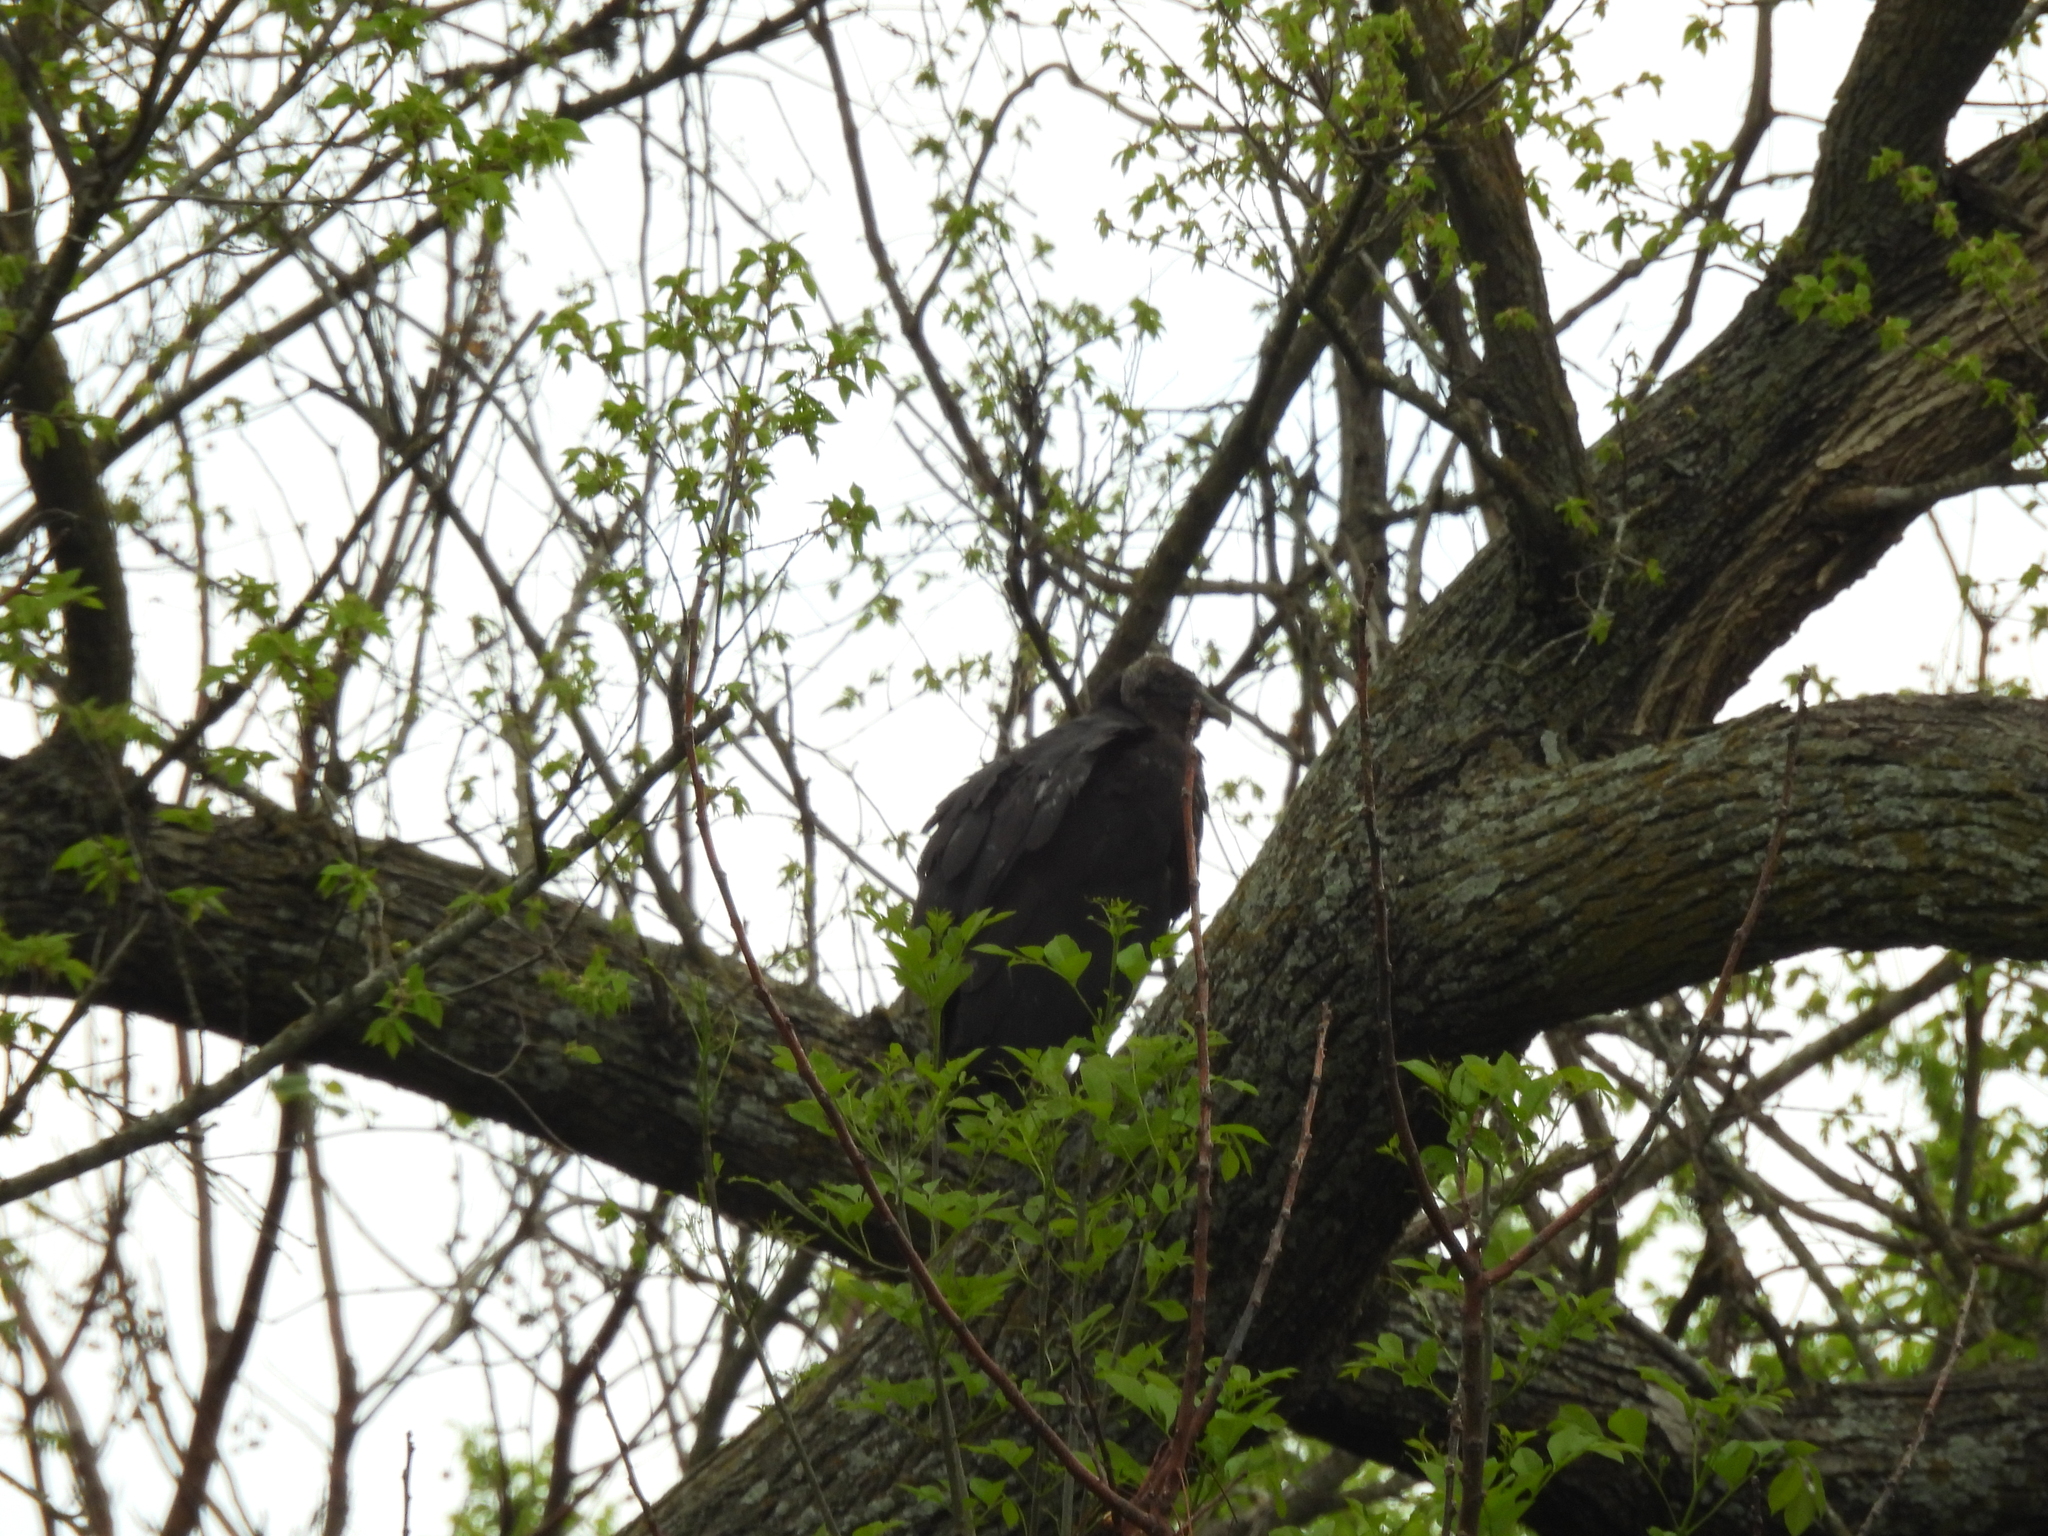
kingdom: Animalia
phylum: Chordata
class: Aves
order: Accipitriformes
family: Cathartidae
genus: Coragyps
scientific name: Coragyps atratus
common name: Black vulture
